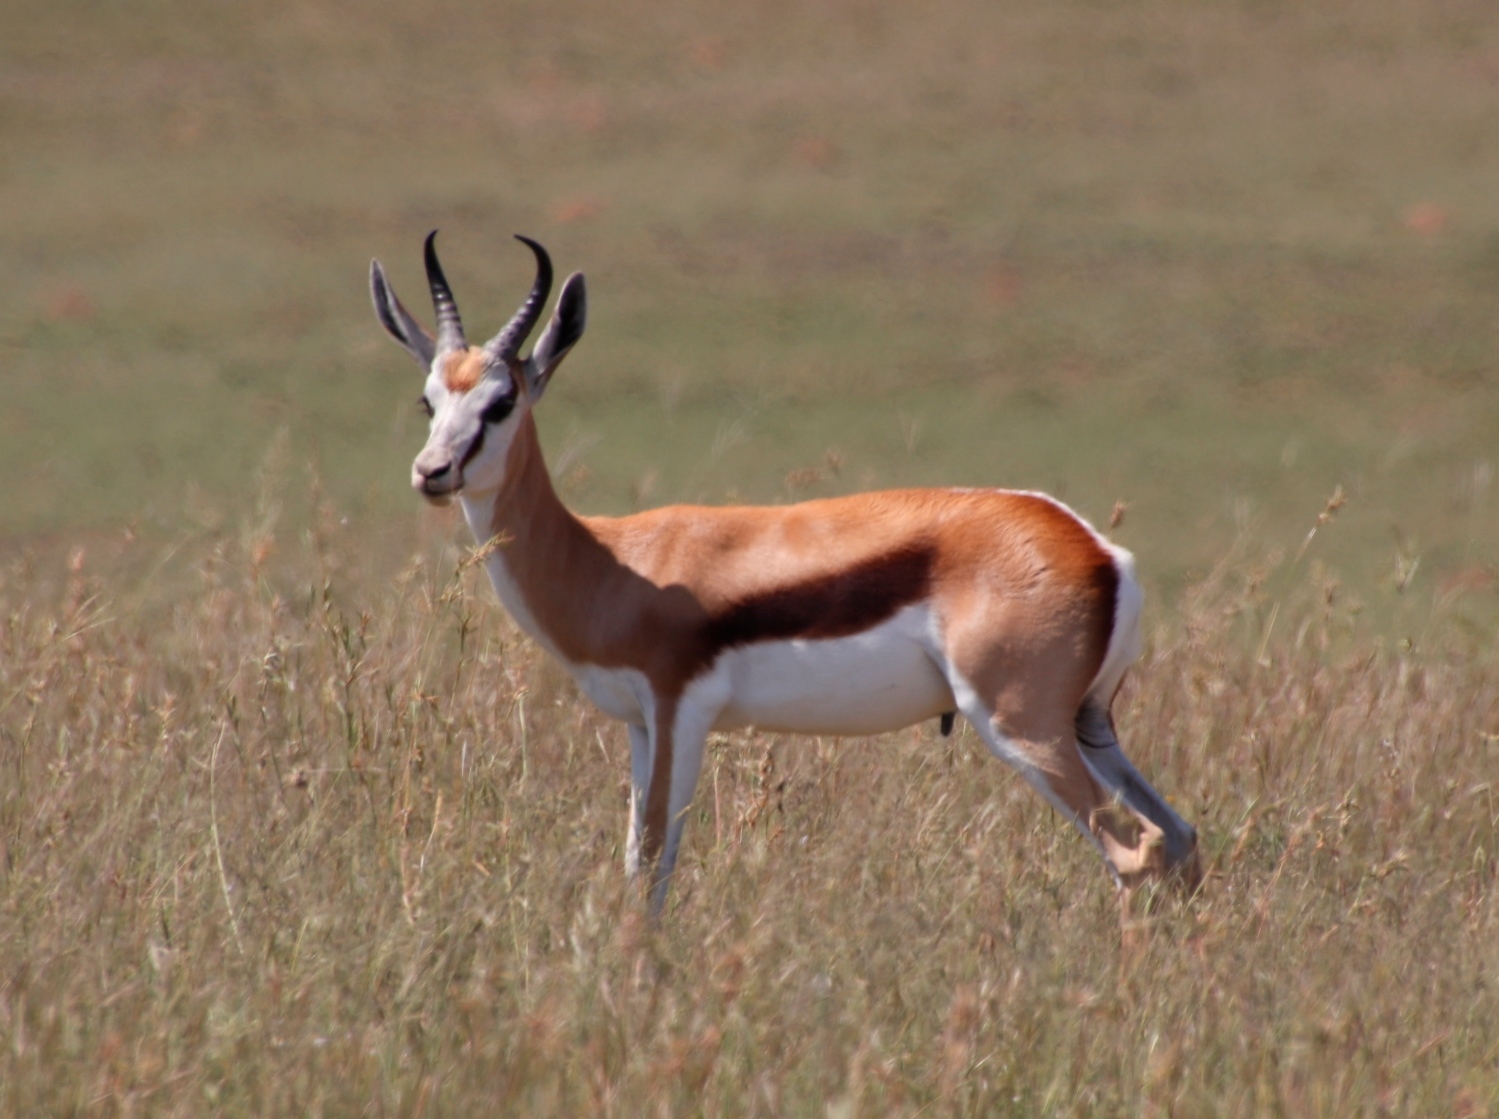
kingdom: Animalia
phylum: Chordata
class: Mammalia
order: Artiodactyla
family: Bovidae
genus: Antidorcas
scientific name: Antidorcas marsupialis
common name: Springbok
